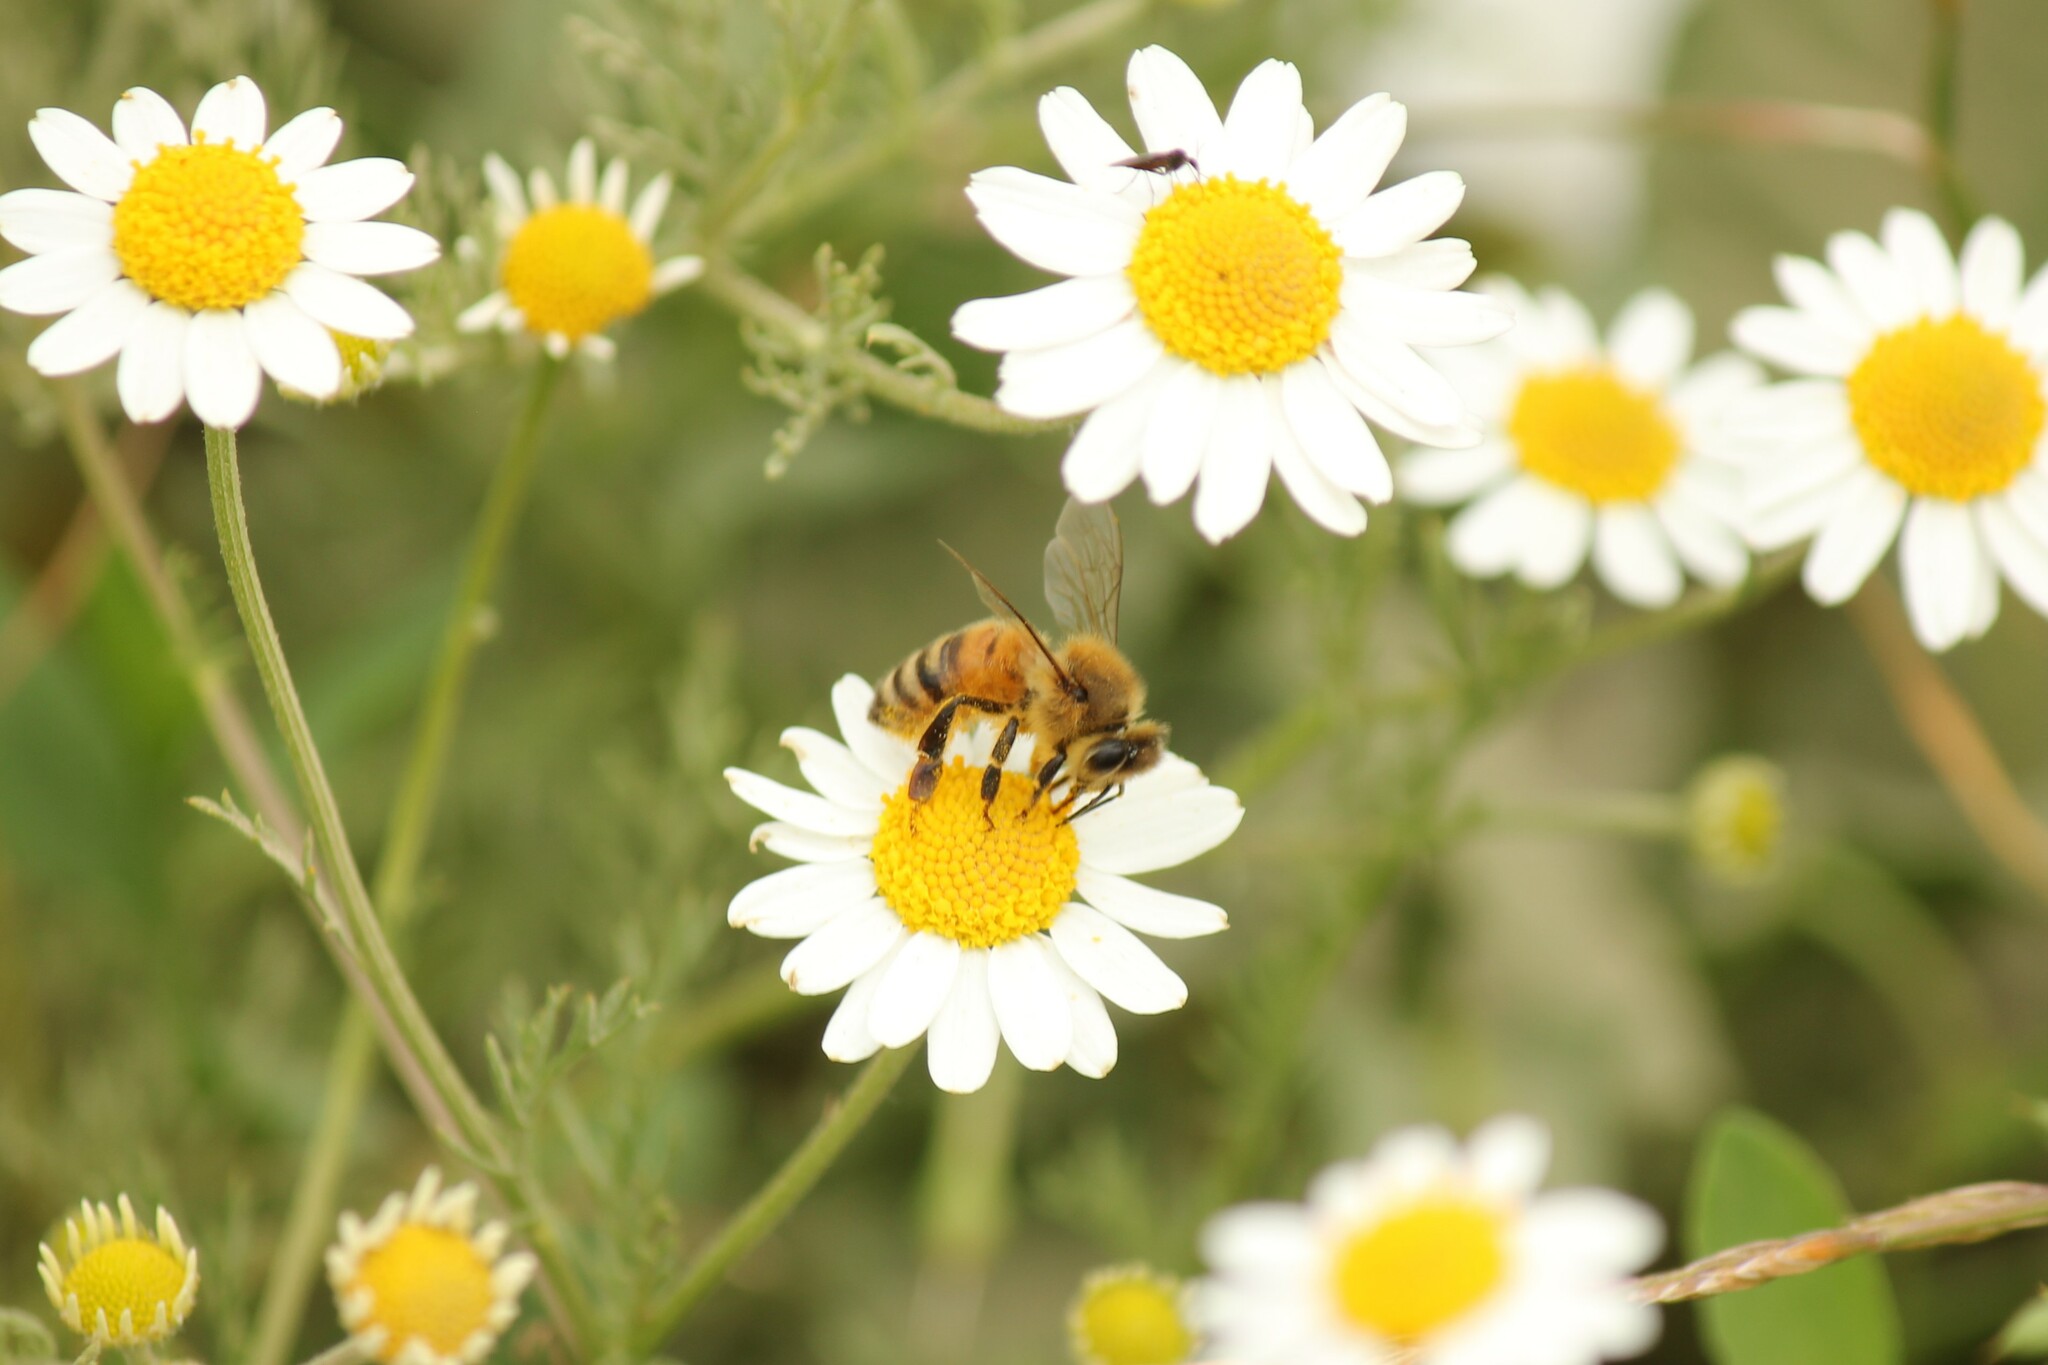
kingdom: Animalia
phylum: Arthropoda
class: Insecta
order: Hymenoptera
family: Apidae
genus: Apis
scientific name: Apis mellifera
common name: Honey bee
